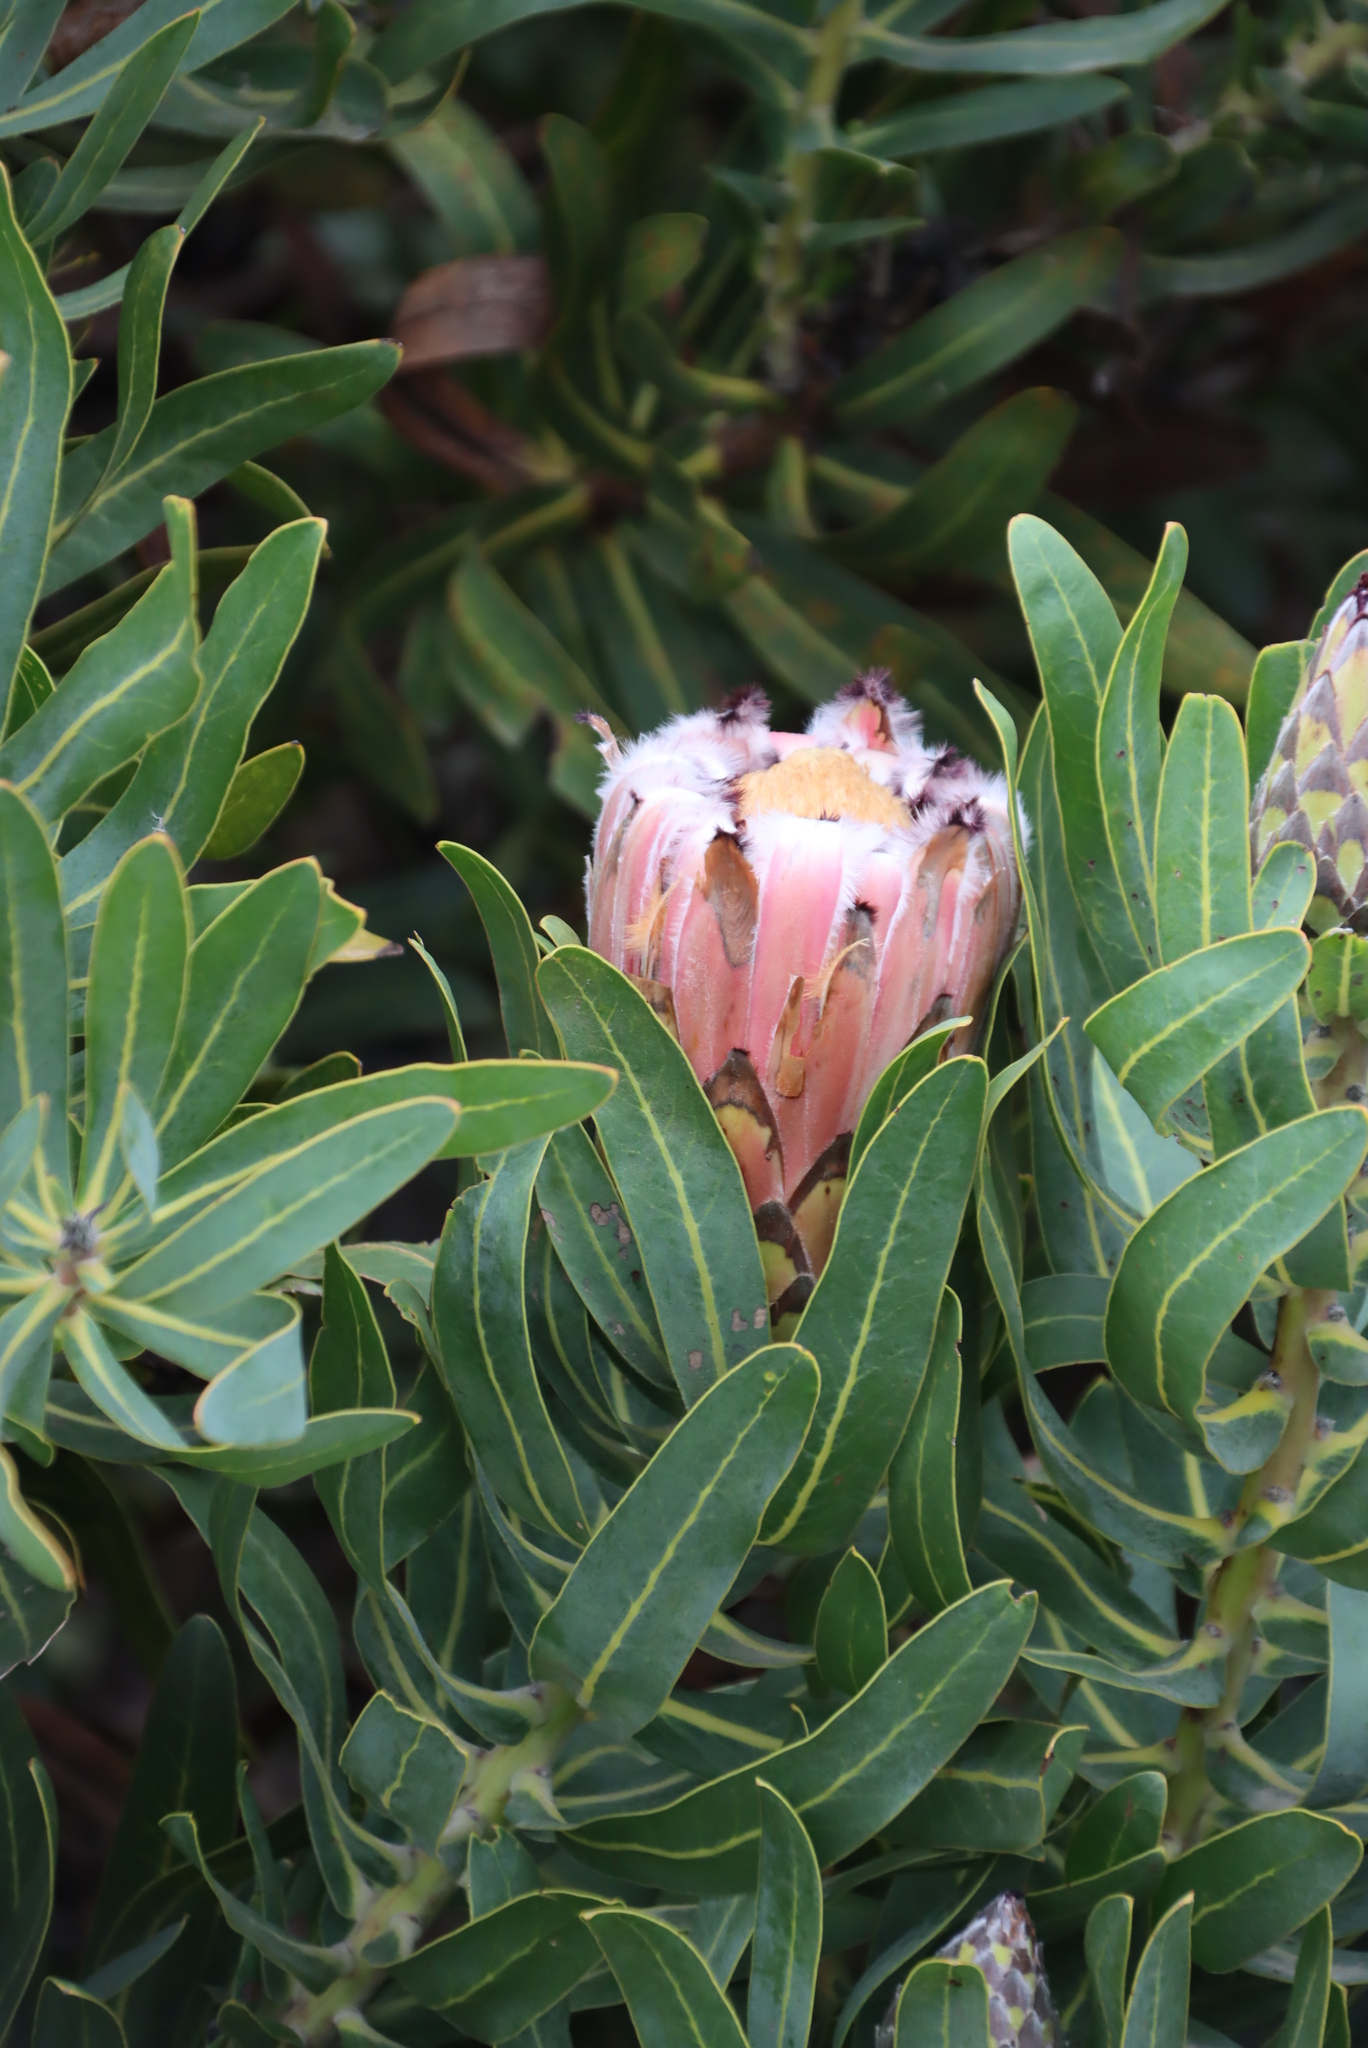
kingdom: Plantae
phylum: Tracheophyta
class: Magnoliopsida
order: Proteales
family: Proteaceae
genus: Protea
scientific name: Protea neriifolia
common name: Blue sugarbush
